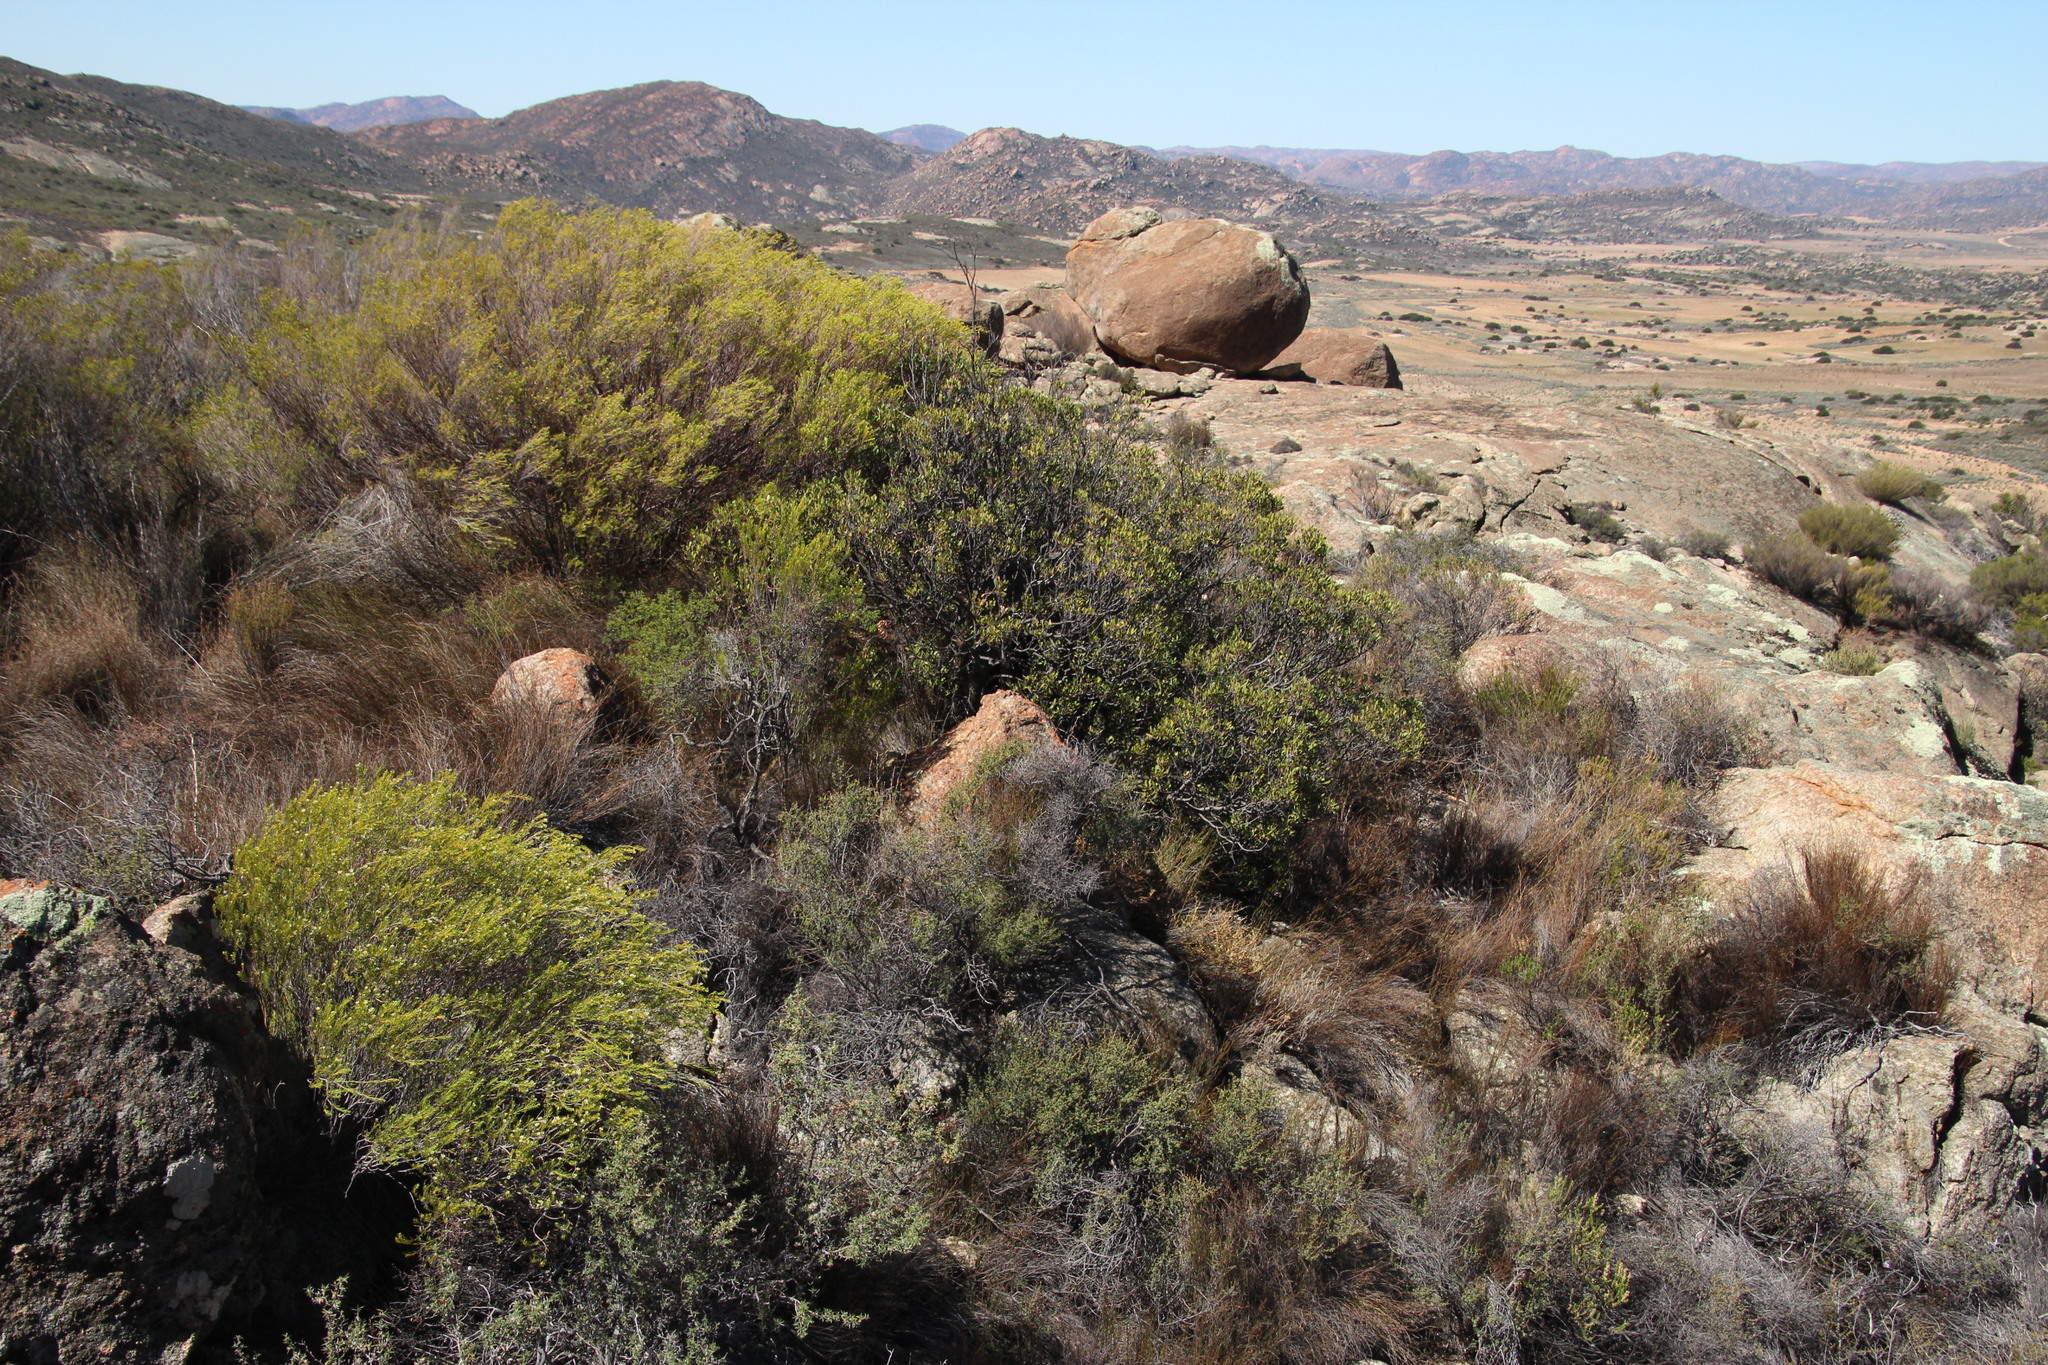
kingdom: Plantae
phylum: Tracheophyta
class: Magnoliopsida
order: Sapindales
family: Rutaceae
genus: Diosma
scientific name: Diosma acmaeophylla
